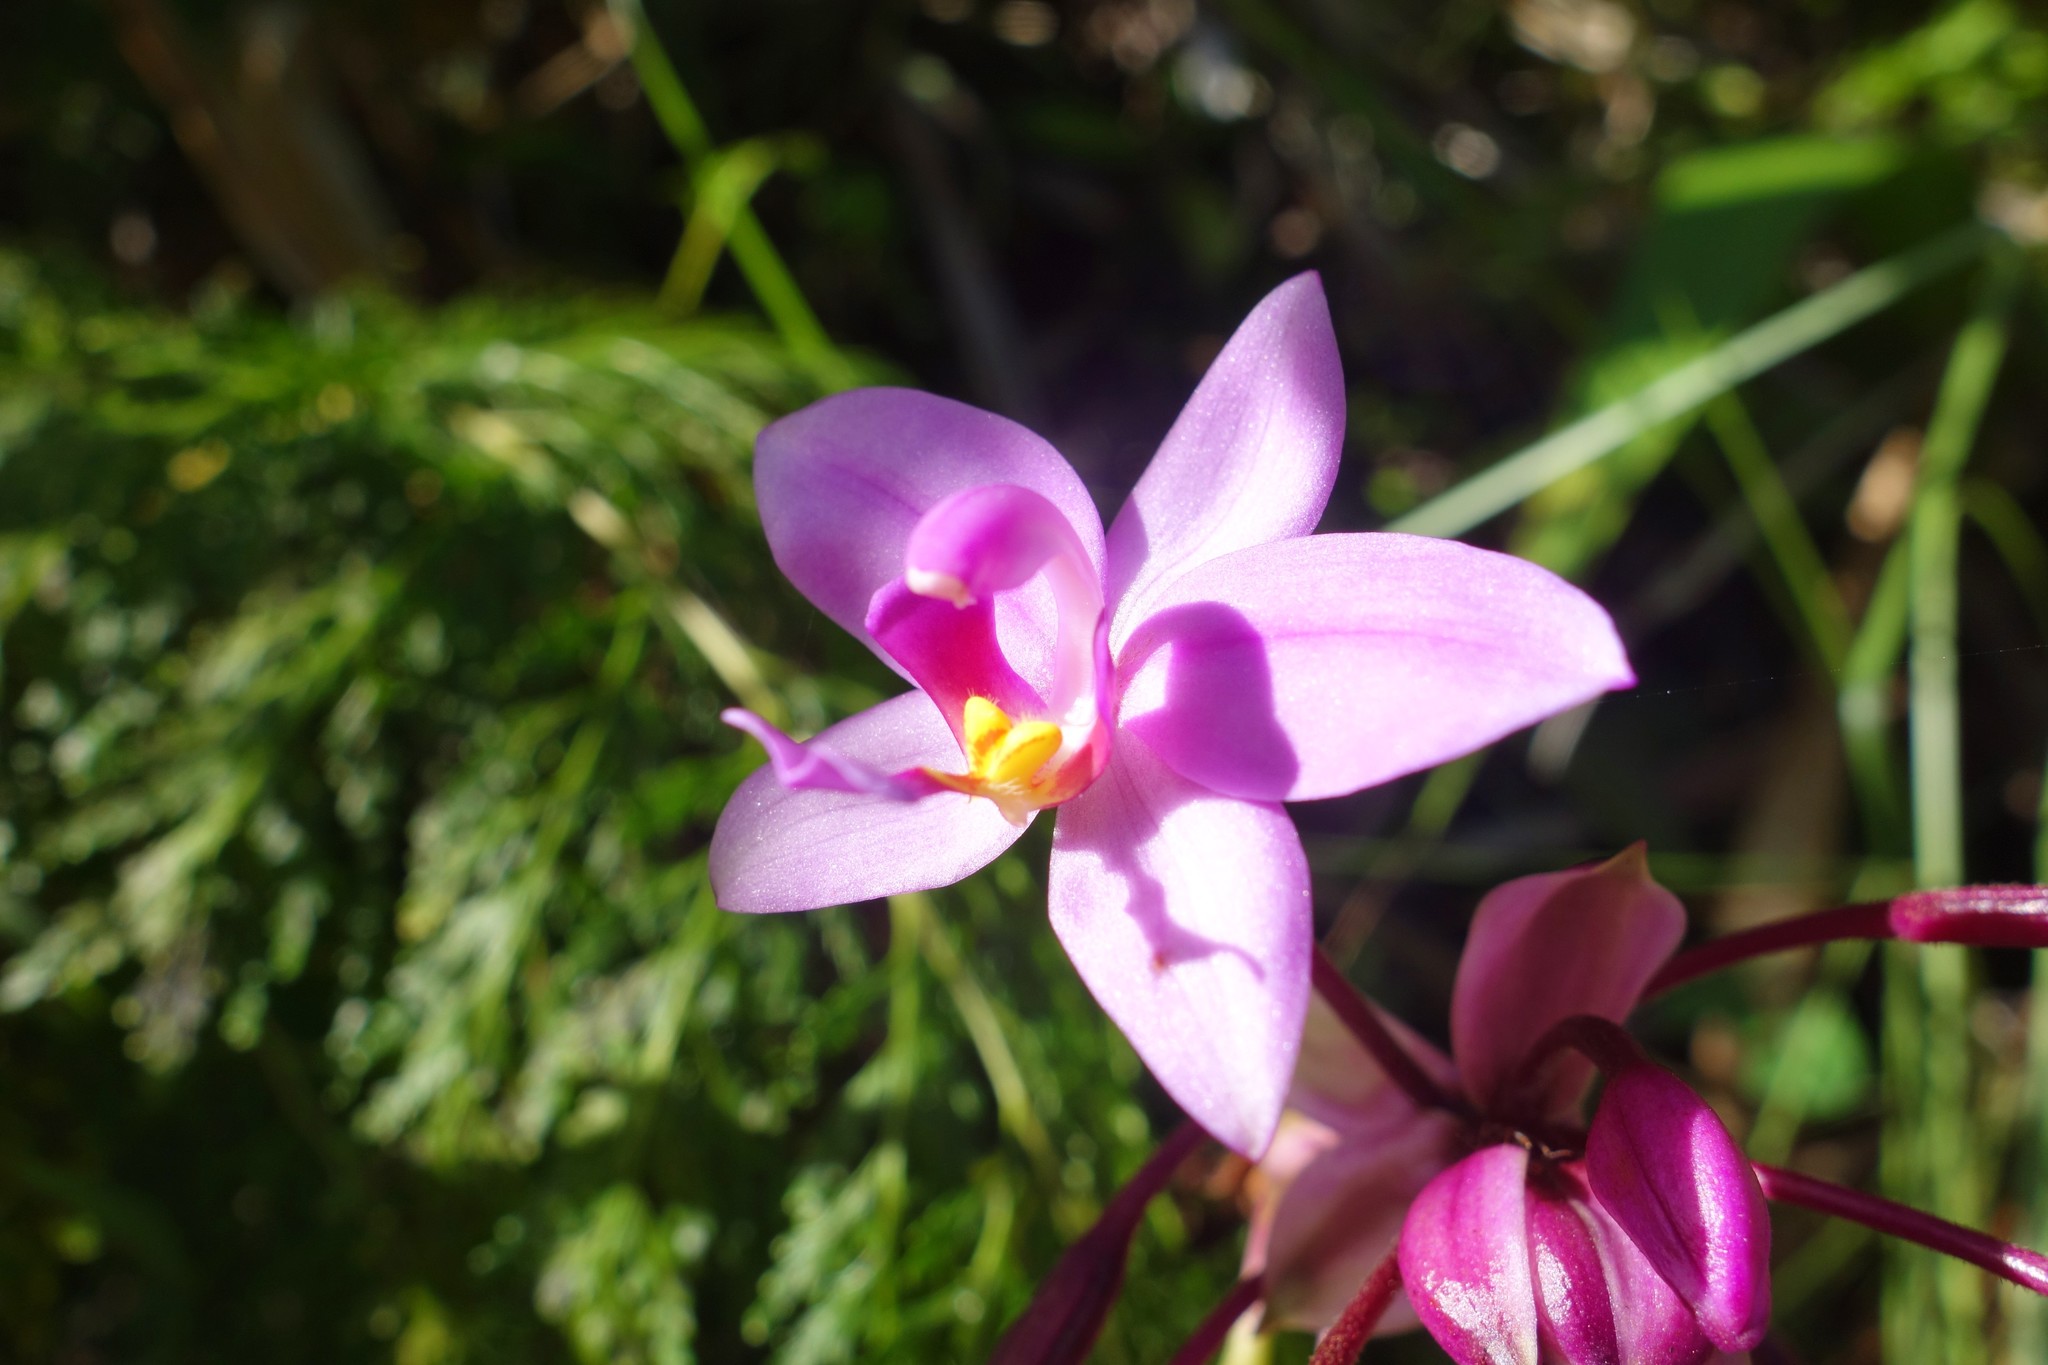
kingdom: Plantae
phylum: Tracheophyta
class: Liliopsida
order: Asparagales
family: Orchidaceae
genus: Spathoglottis
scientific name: Spathoglottis plicata
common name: Philippine ground orchid
